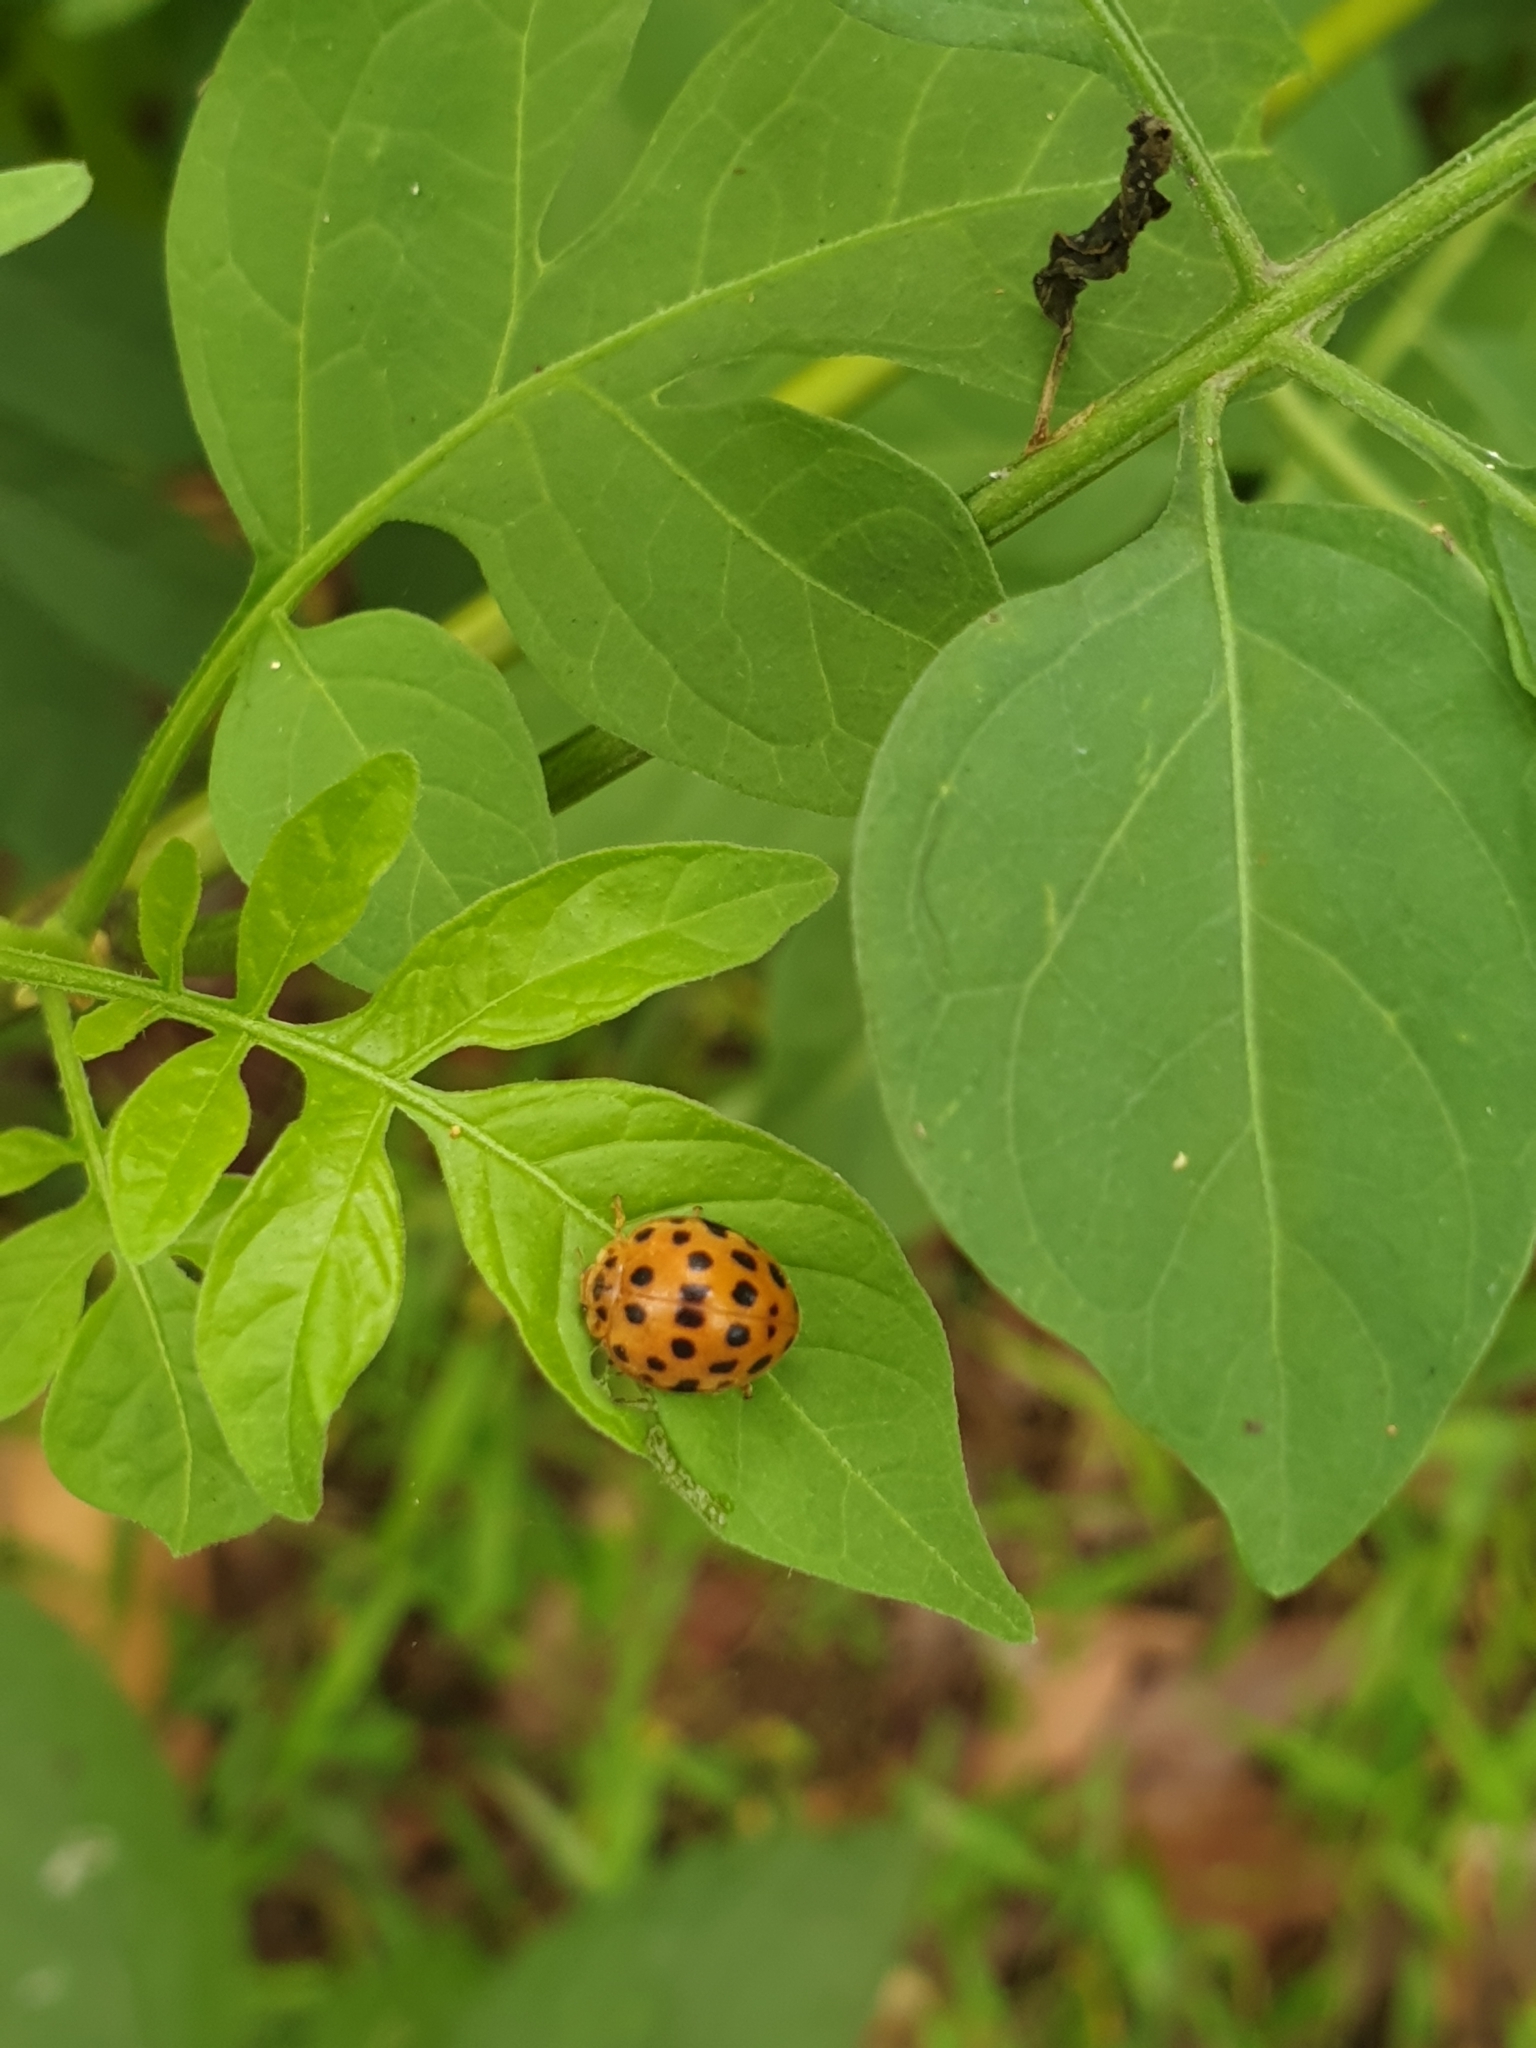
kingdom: Animalia
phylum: Arthropoda
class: Insecta
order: Coleoptera
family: Coccinellidae
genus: Henosepilachna
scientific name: Henosepilachna vigintioctopunctata
